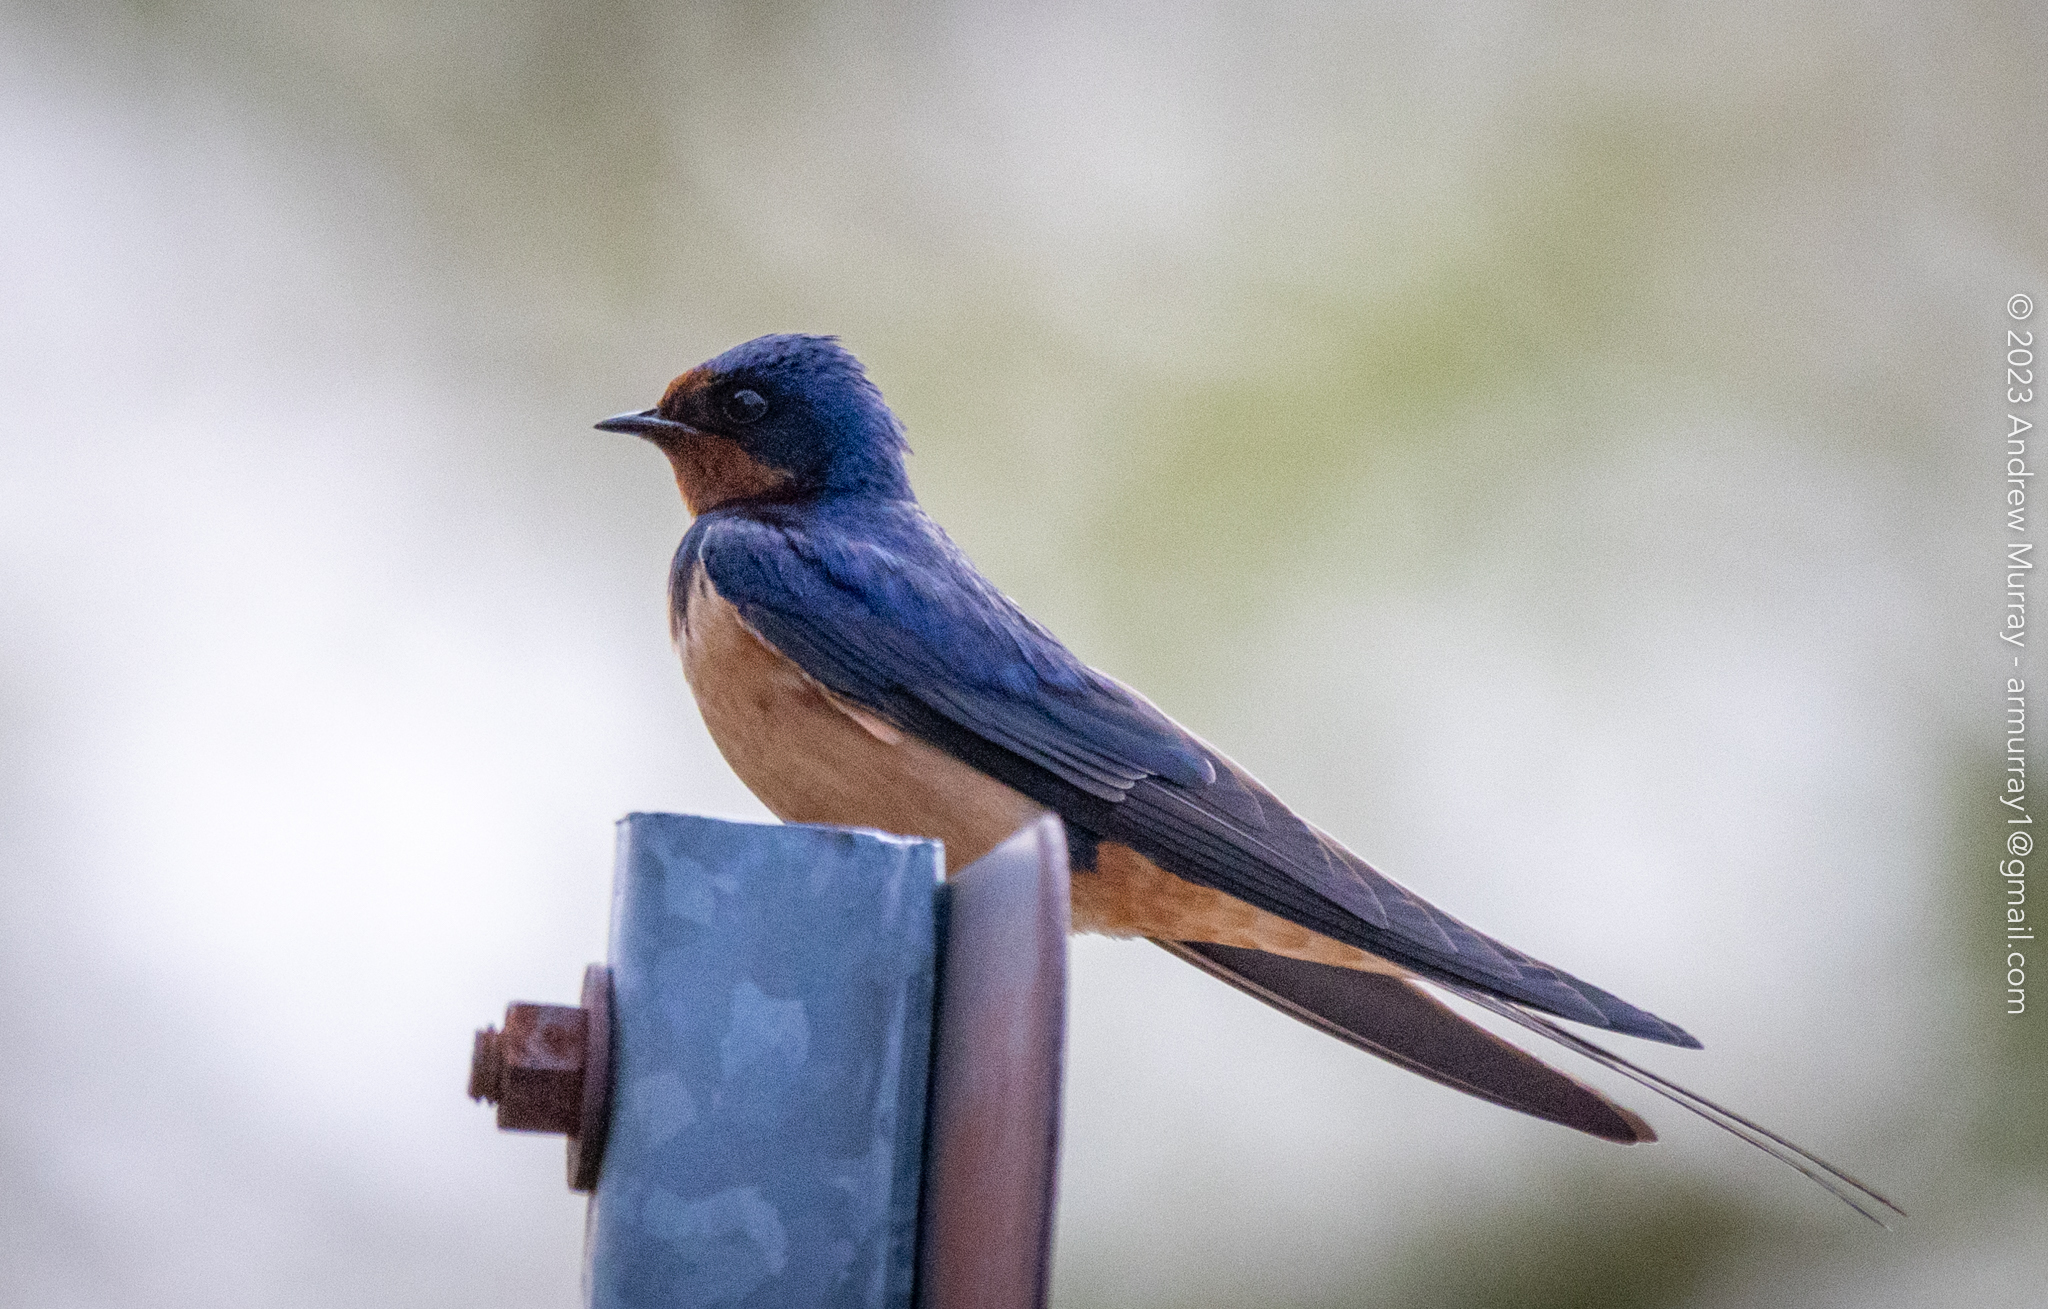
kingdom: Animalia
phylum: Chordata
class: Aves
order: Passeriformes
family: Hirundinidae
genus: Hirundo
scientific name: Hirundo rustica
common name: Barn swallow
